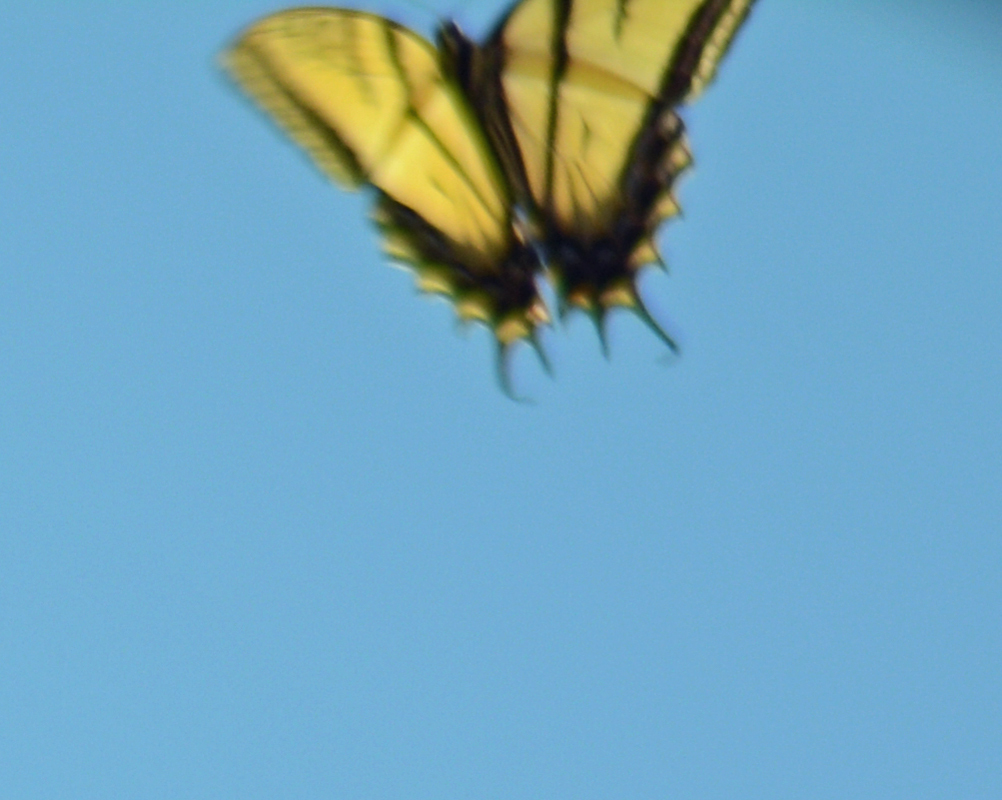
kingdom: Animalia
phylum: Arthropoda
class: Insecta
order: Lepidoptera
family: Papilionidae
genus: Papilio
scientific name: Papilio multicaudata
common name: Two-tailed tiger swallowtail
